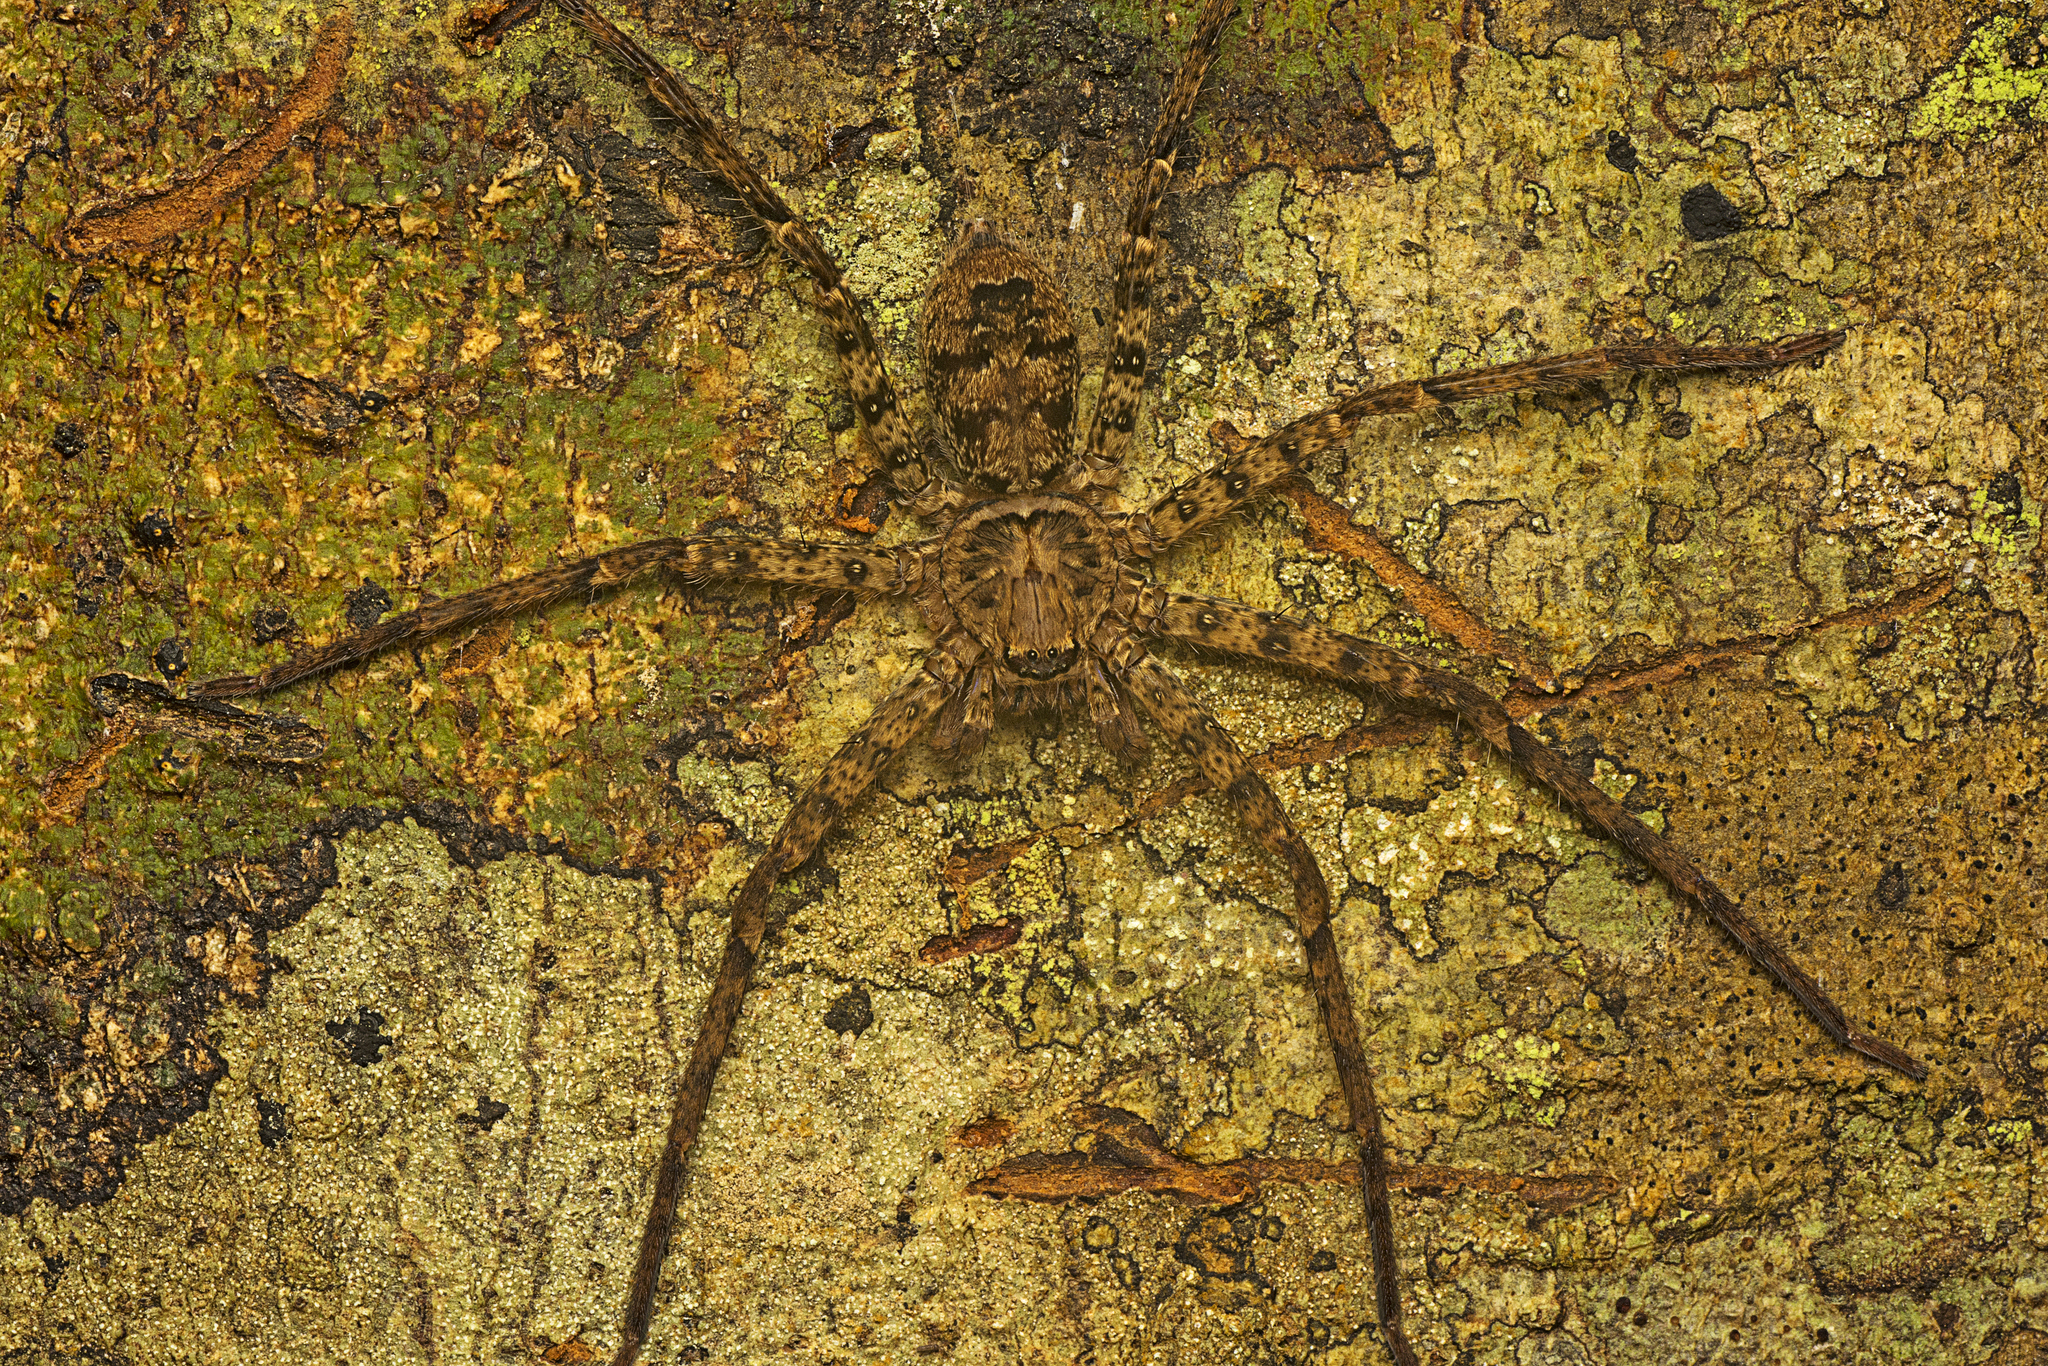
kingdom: Animalia
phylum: Arthropoda
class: Arachnida
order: Araneae
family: Sparassidae
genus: Heteropoda
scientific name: Heteropoda procera
